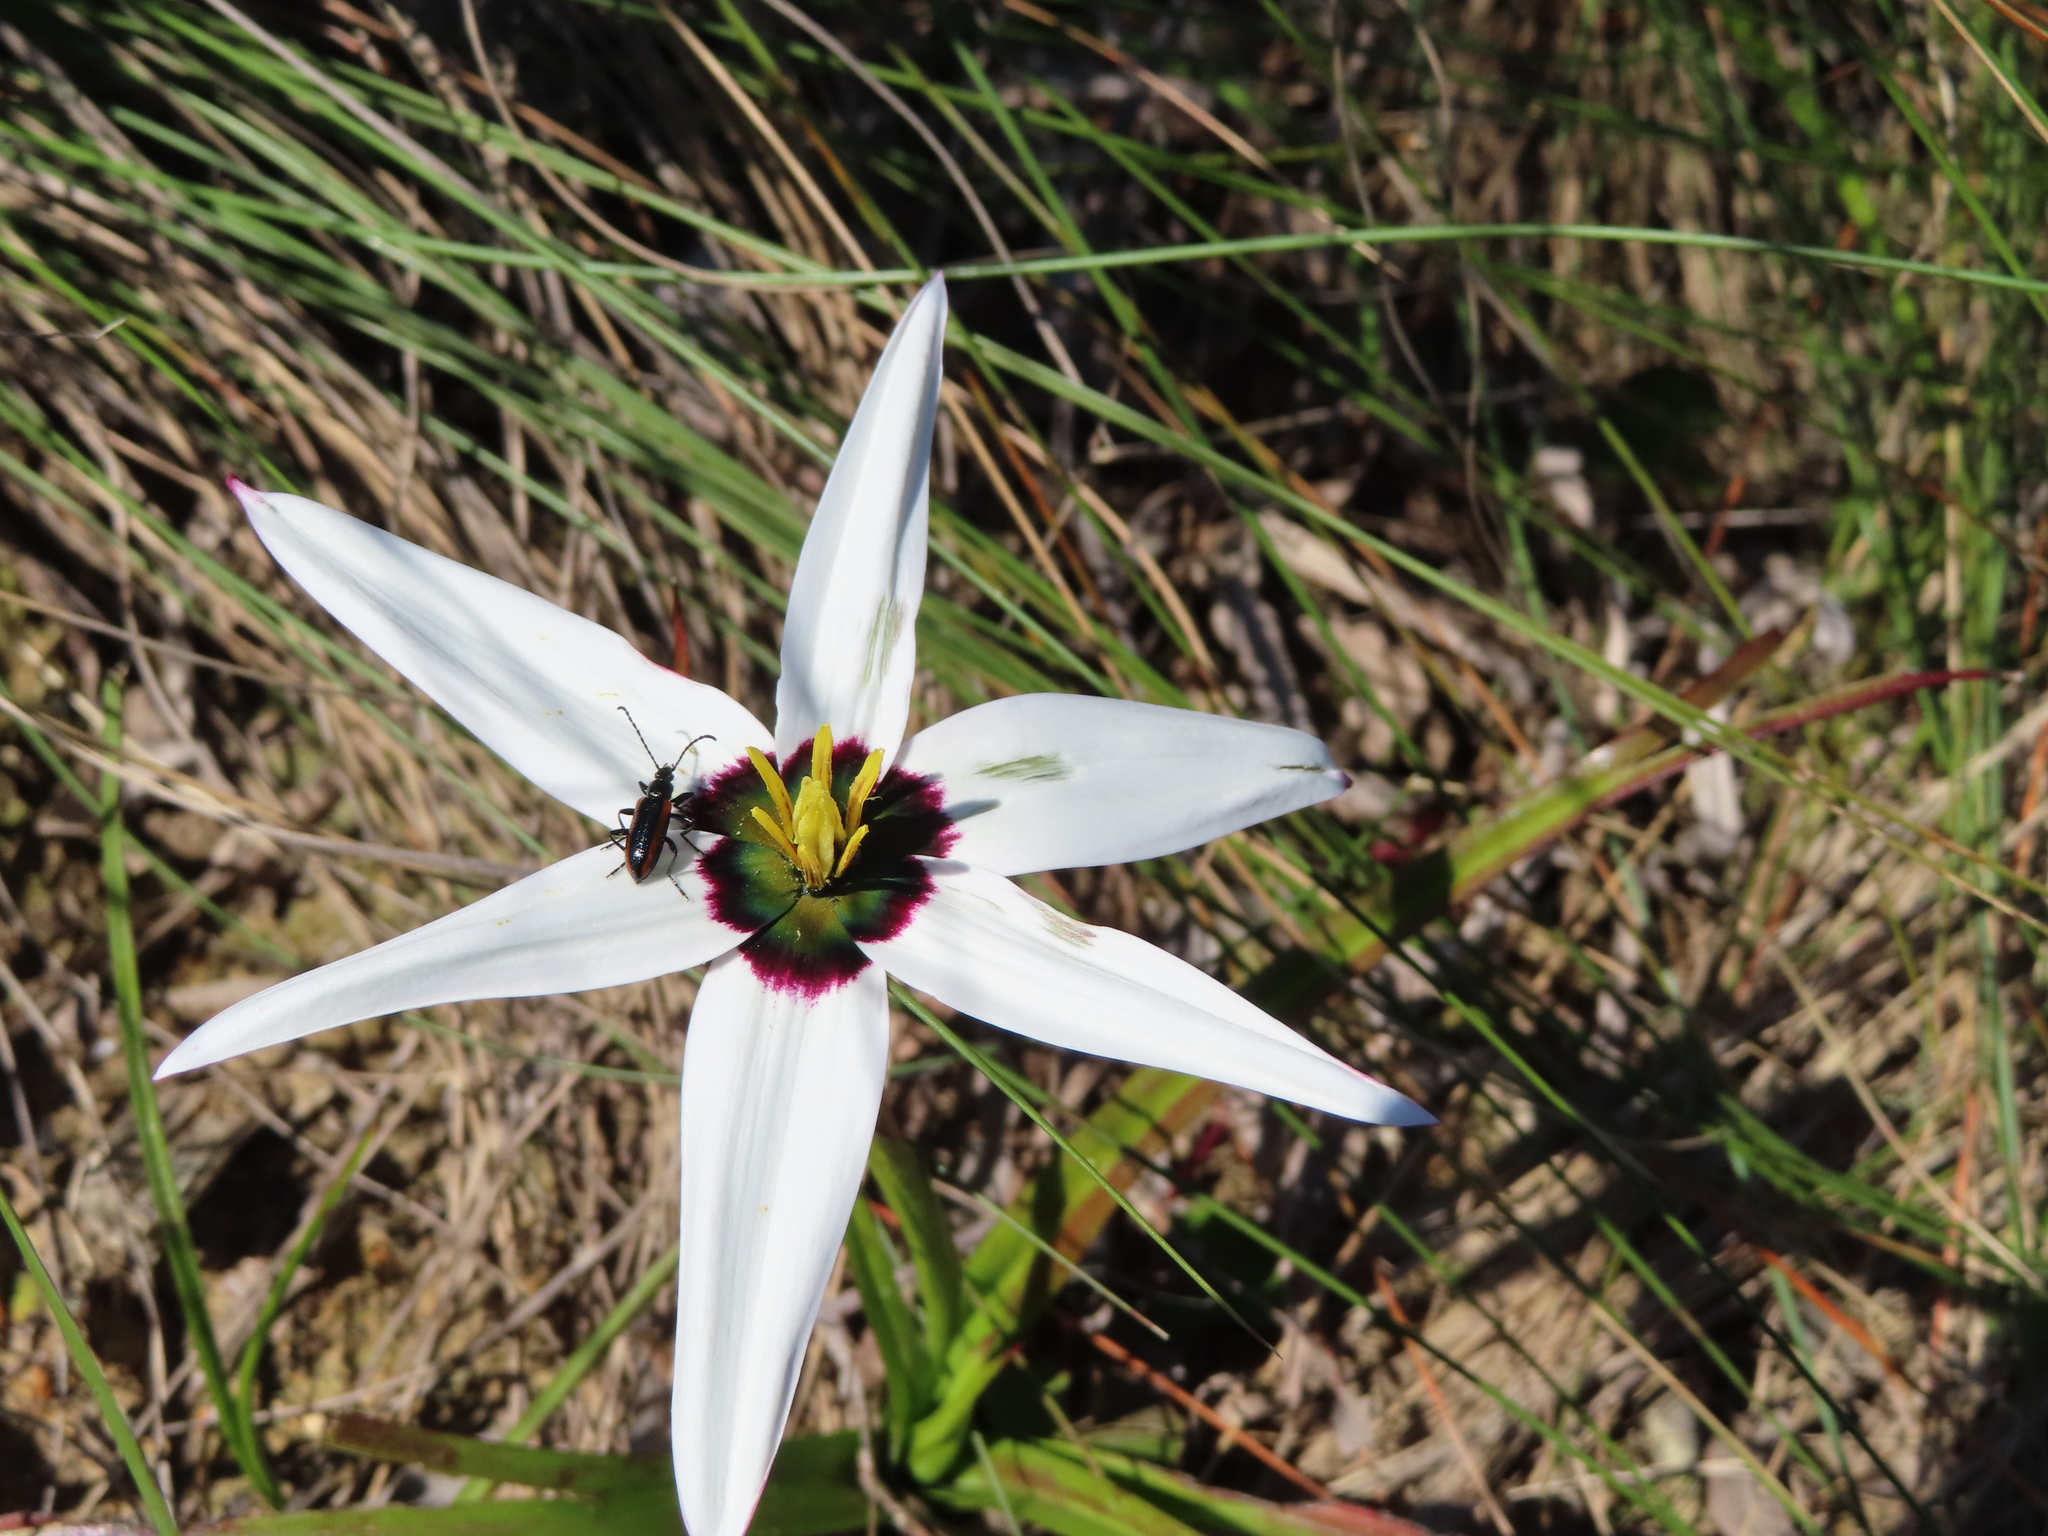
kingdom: Plantae
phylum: Tracheophyta
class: Liliopsida
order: Asparagales
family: Hypoxidaceae
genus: Pauridia
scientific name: Pauridia capensis
